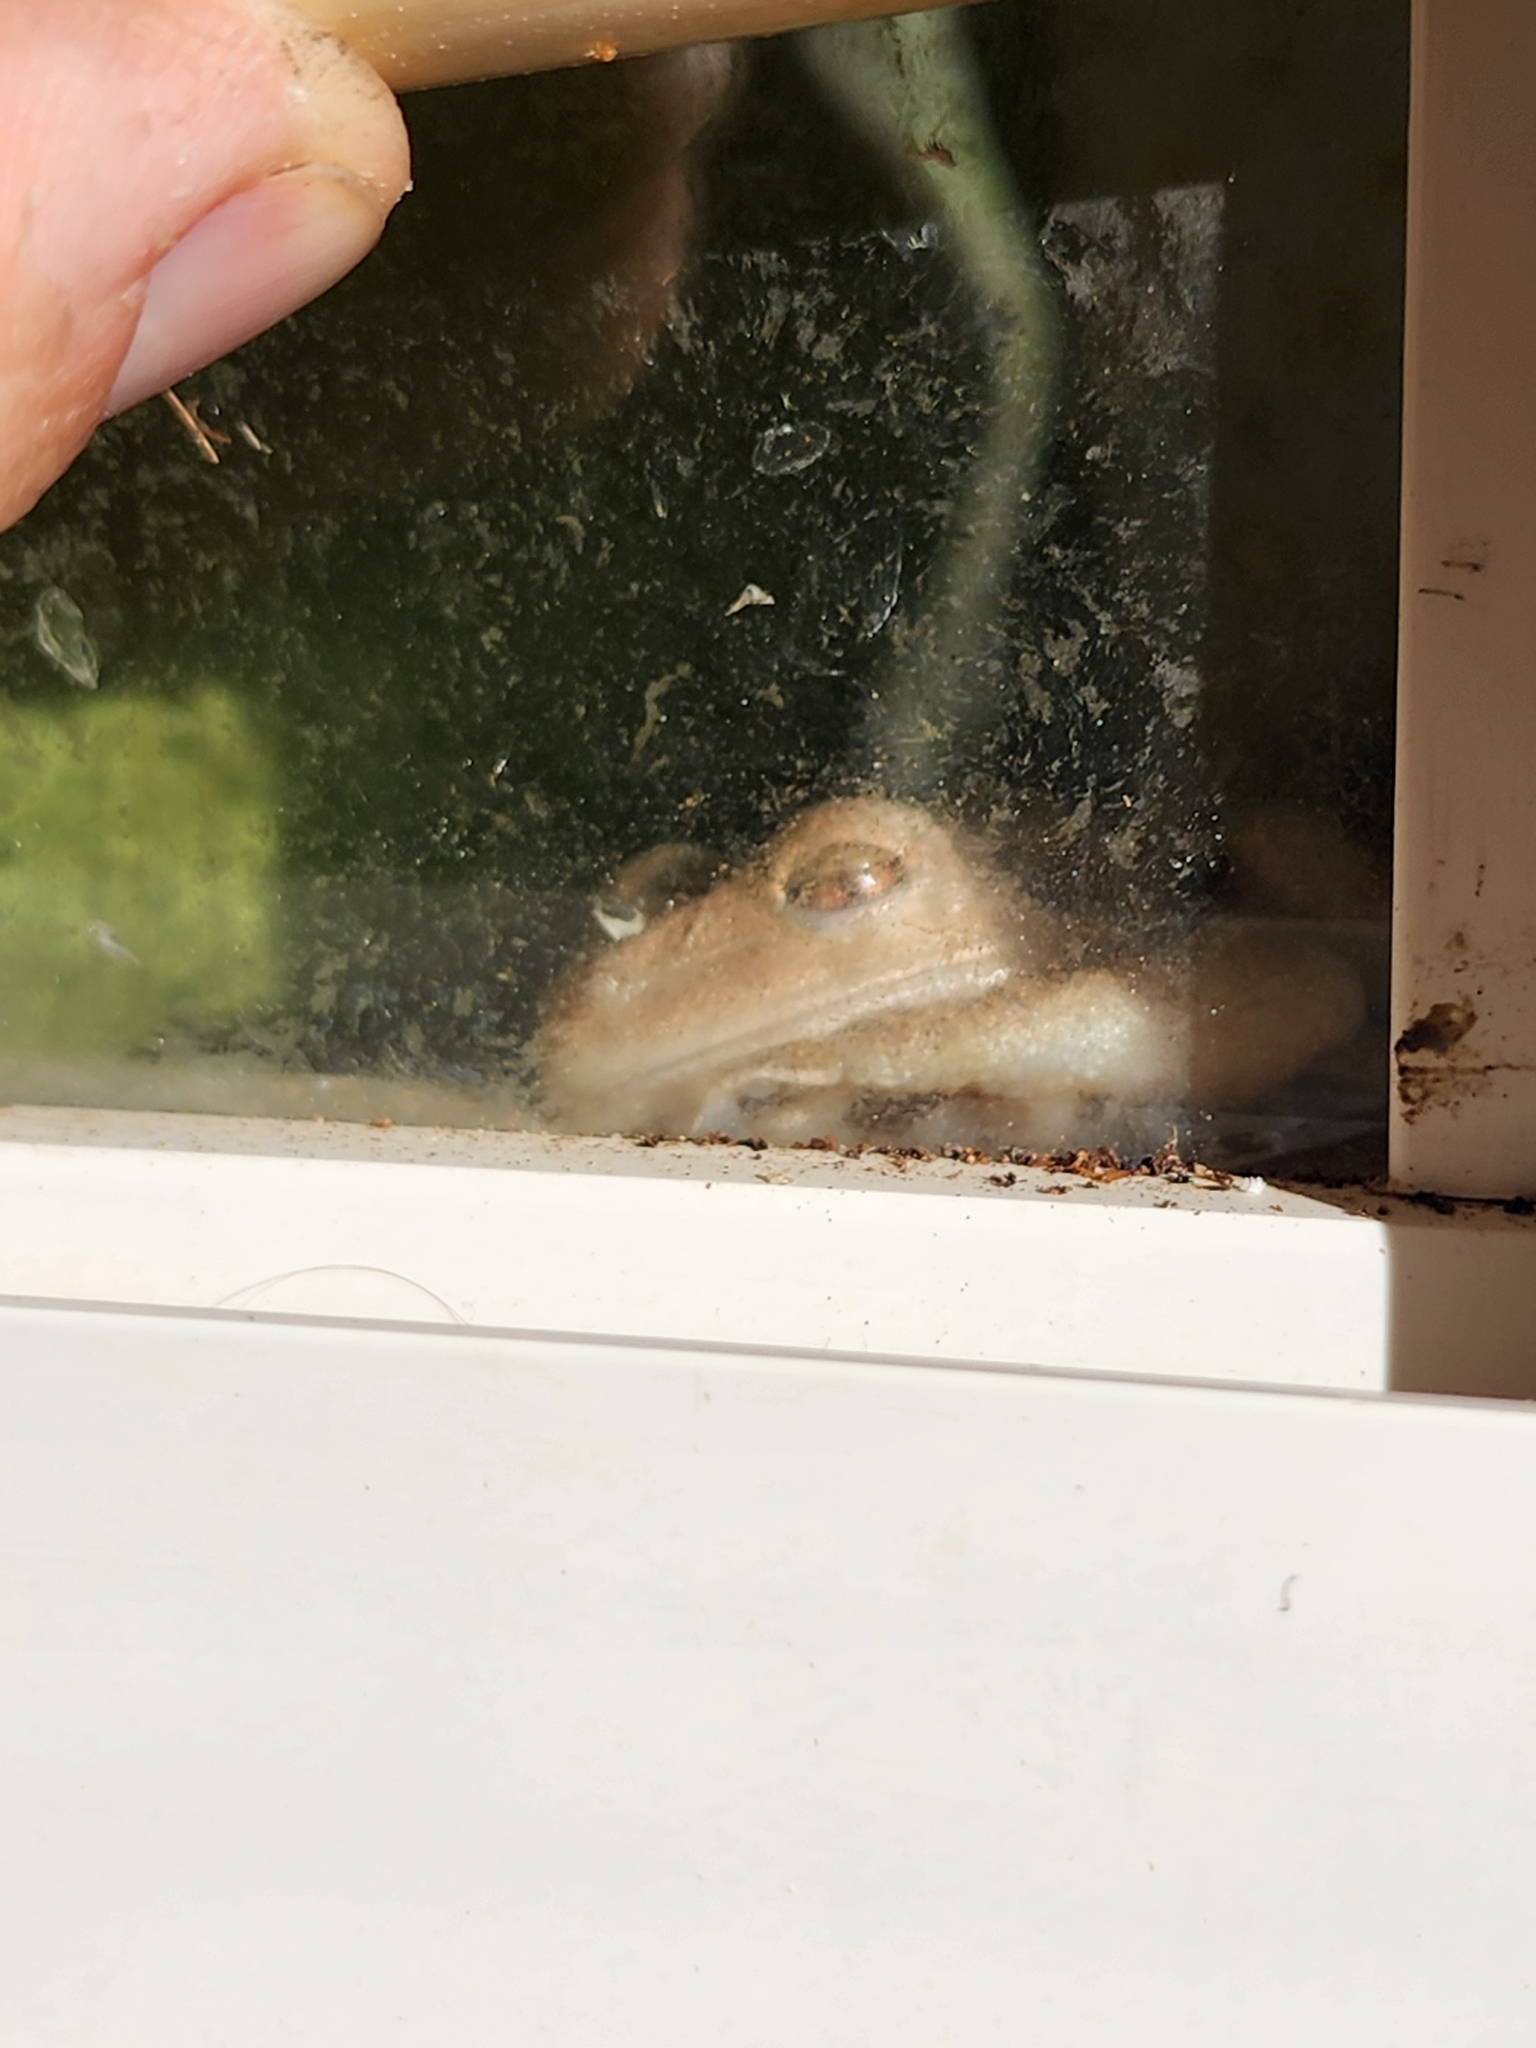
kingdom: Animalia
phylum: Chordata
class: Amphibia
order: Anura
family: Hylidae
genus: Osteopilus
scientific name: Osteopilus septentrionalis
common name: Cuban treefrog
